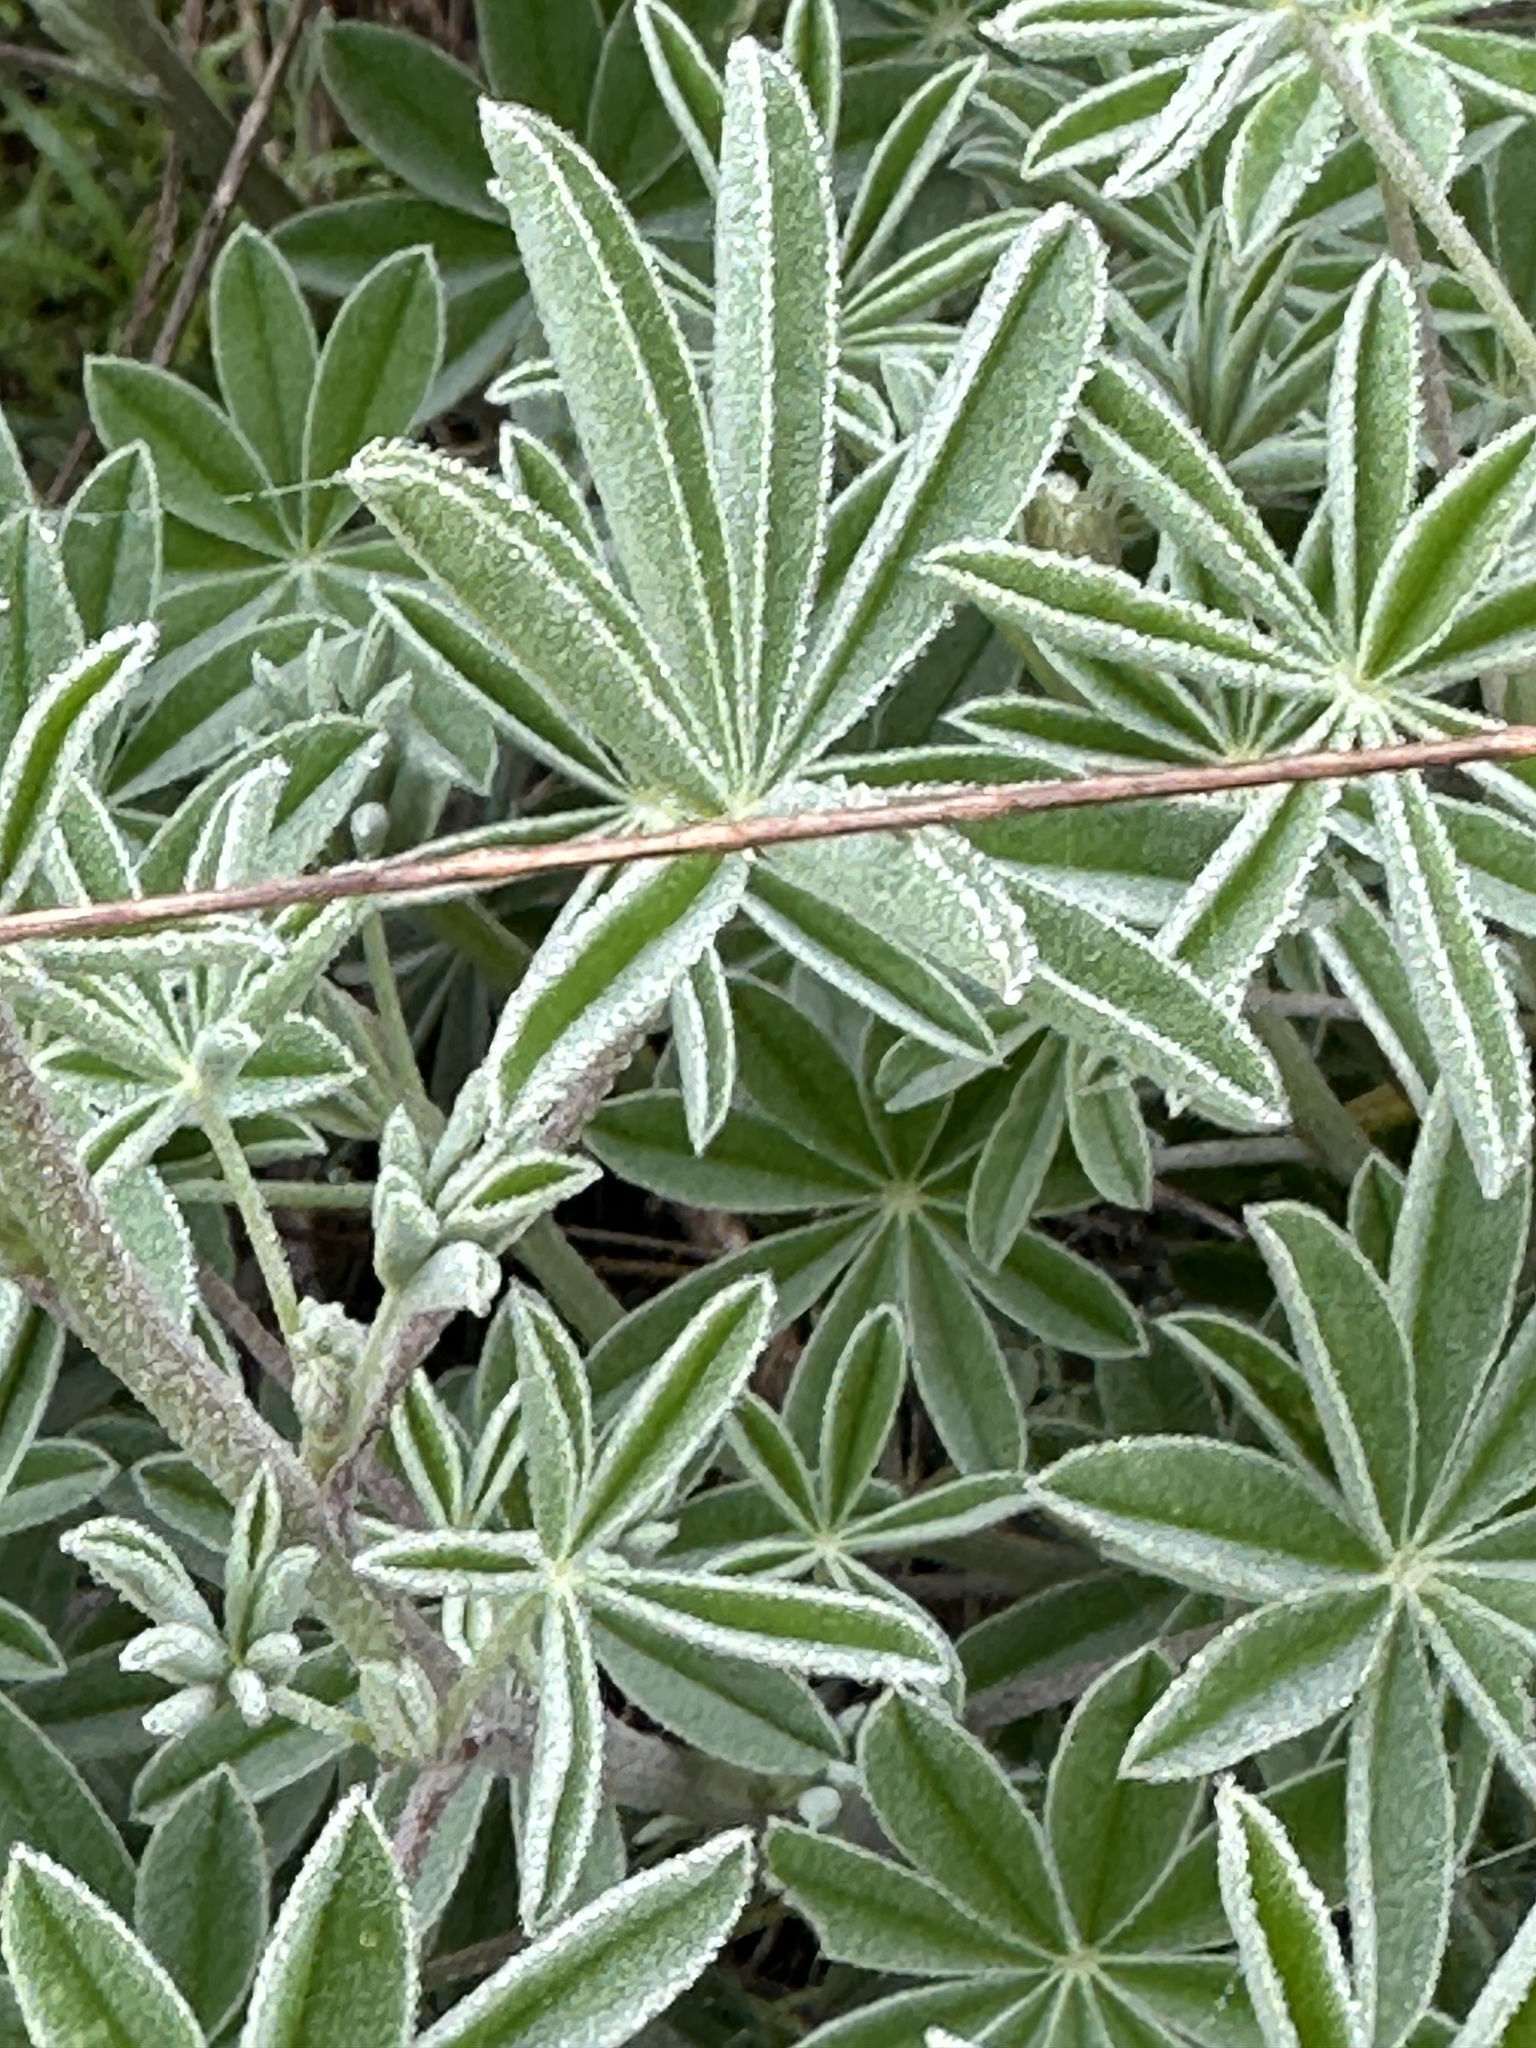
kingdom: Plantae
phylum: Tracheophyta
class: Magnoliopsida
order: Fabales
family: Fabaceae
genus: Lupinus
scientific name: Lupinus albifrons
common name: Foothill lupine
